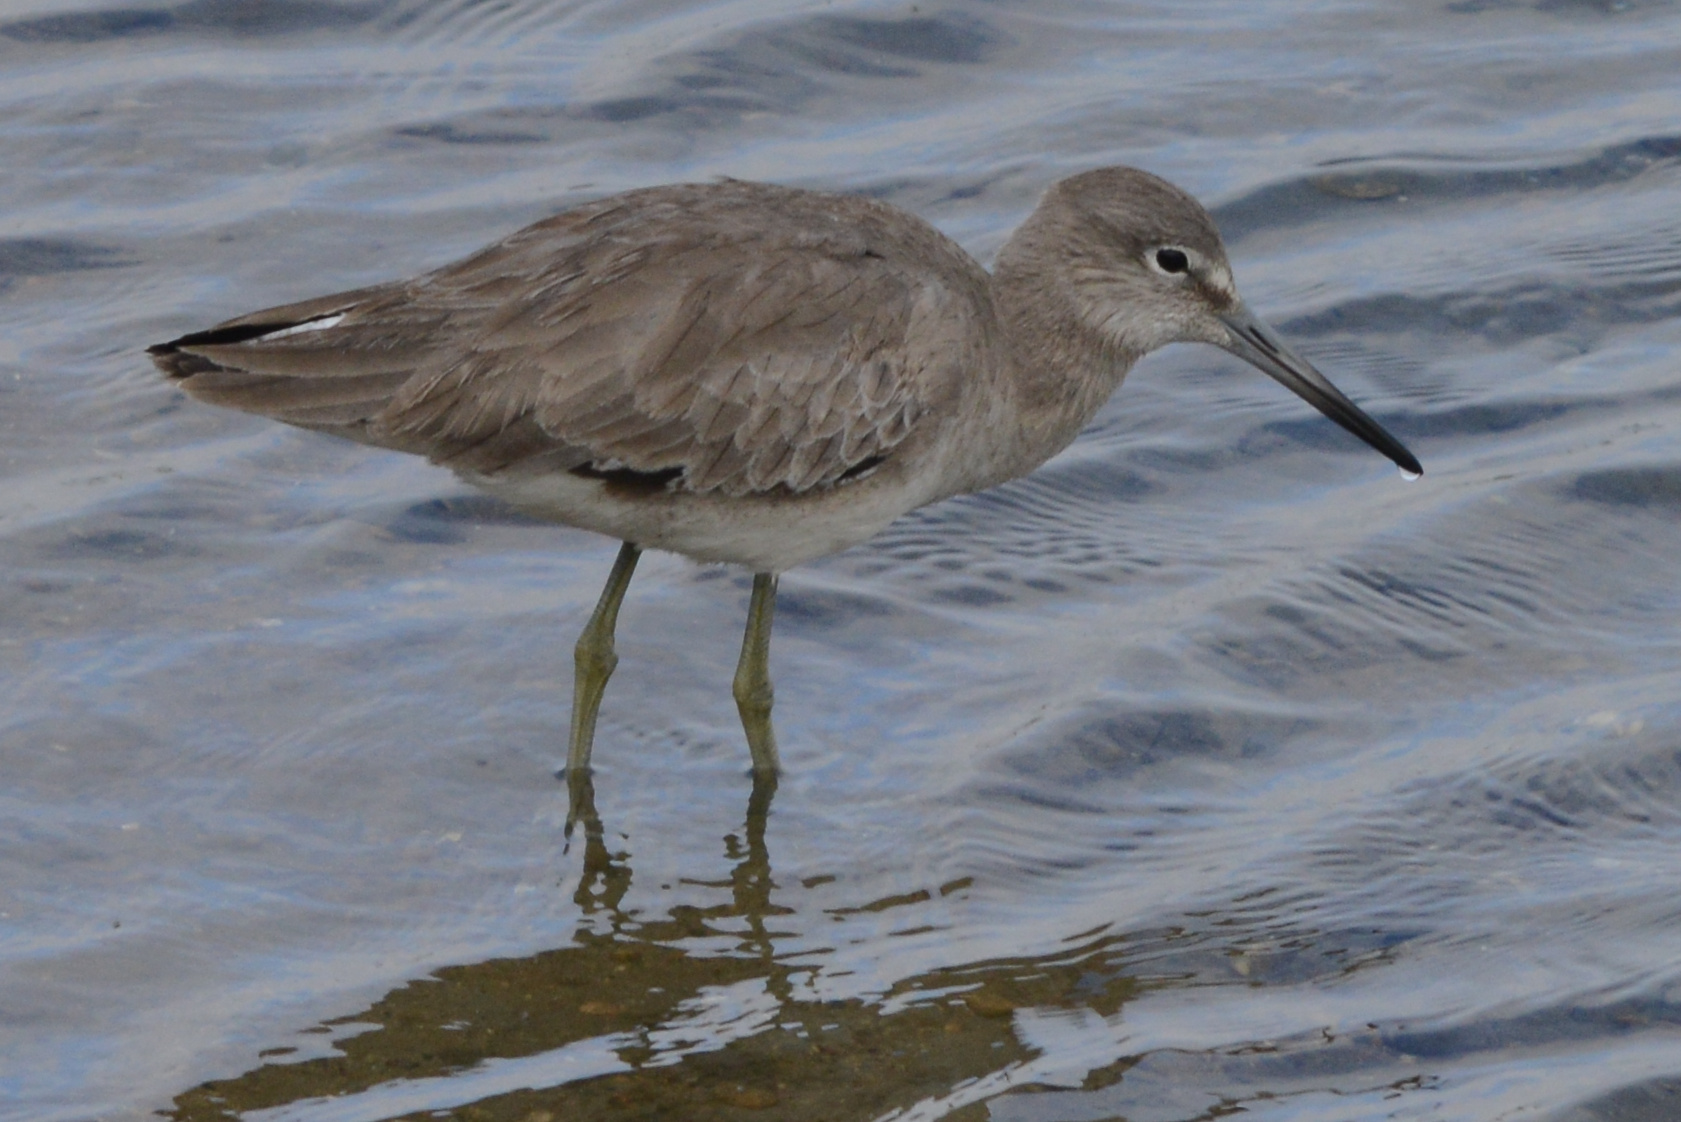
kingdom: Animalia
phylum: Chordata
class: Aves
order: Charadriiformes
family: Scolopacidae
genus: Tringa
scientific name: Tringa semipalmata
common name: Willet
